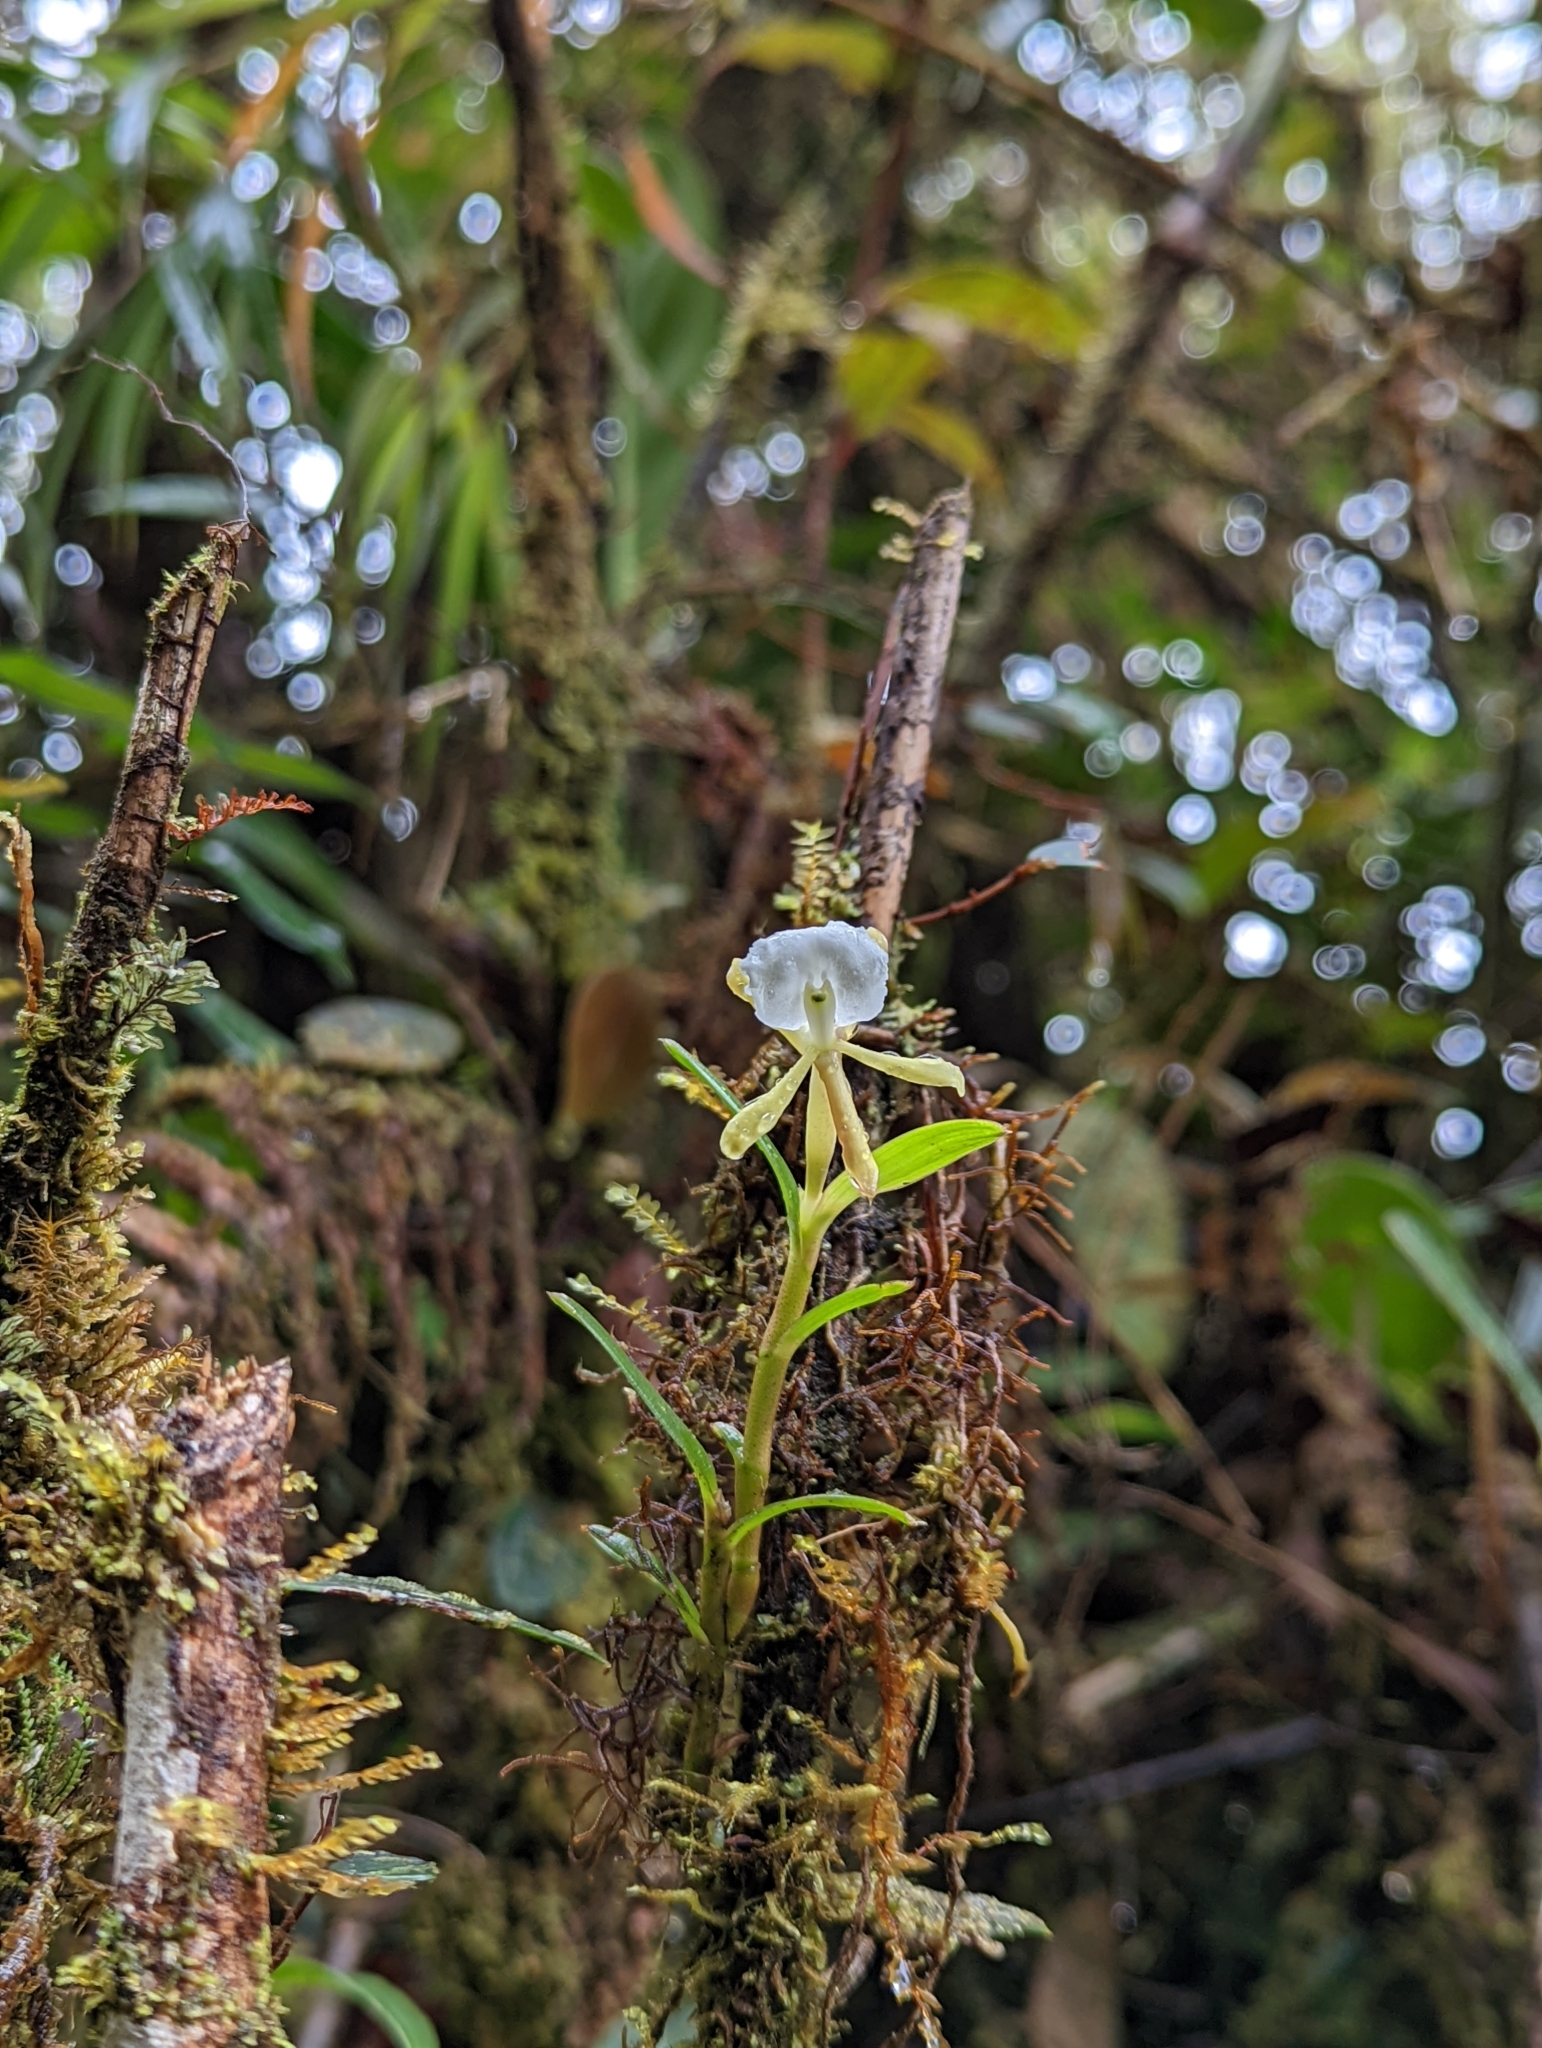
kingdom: Plantae
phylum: Tracheophyta
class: Liliopsida
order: Asparagales
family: Orchidaceae
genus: Epidendrum
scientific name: Epidendrum silverstonei
